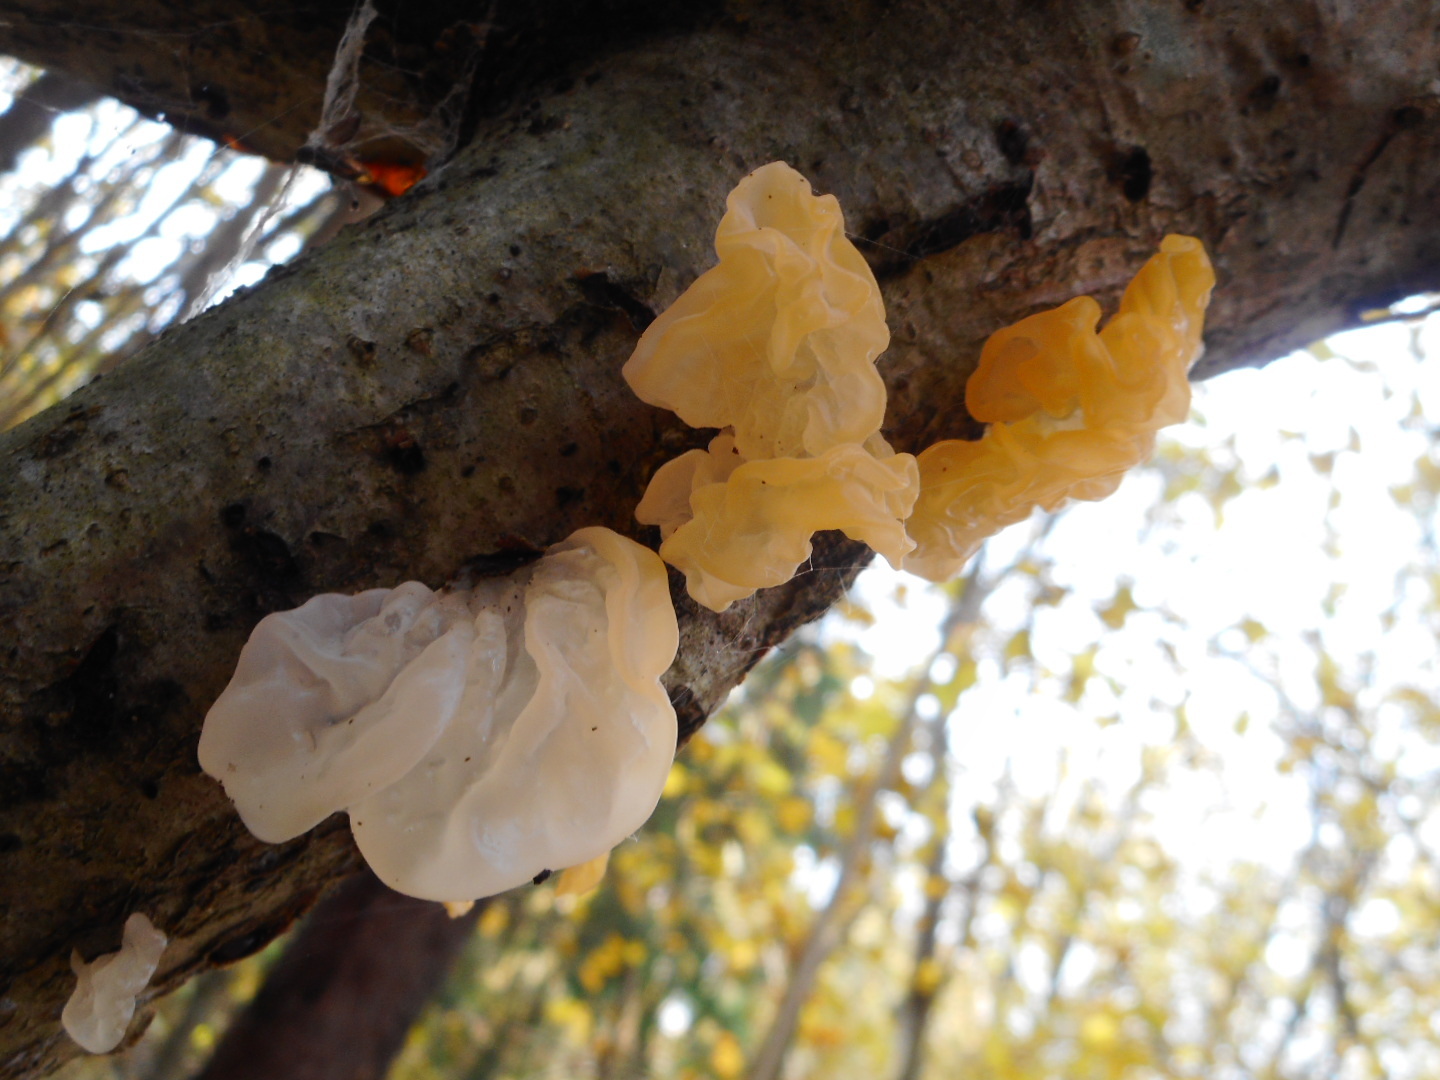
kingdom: Fungi
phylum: Basidiomycota
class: Tremellomycetes
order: Tremellales
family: Tremellaceae
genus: Tremella
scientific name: Tremella mesenterica
